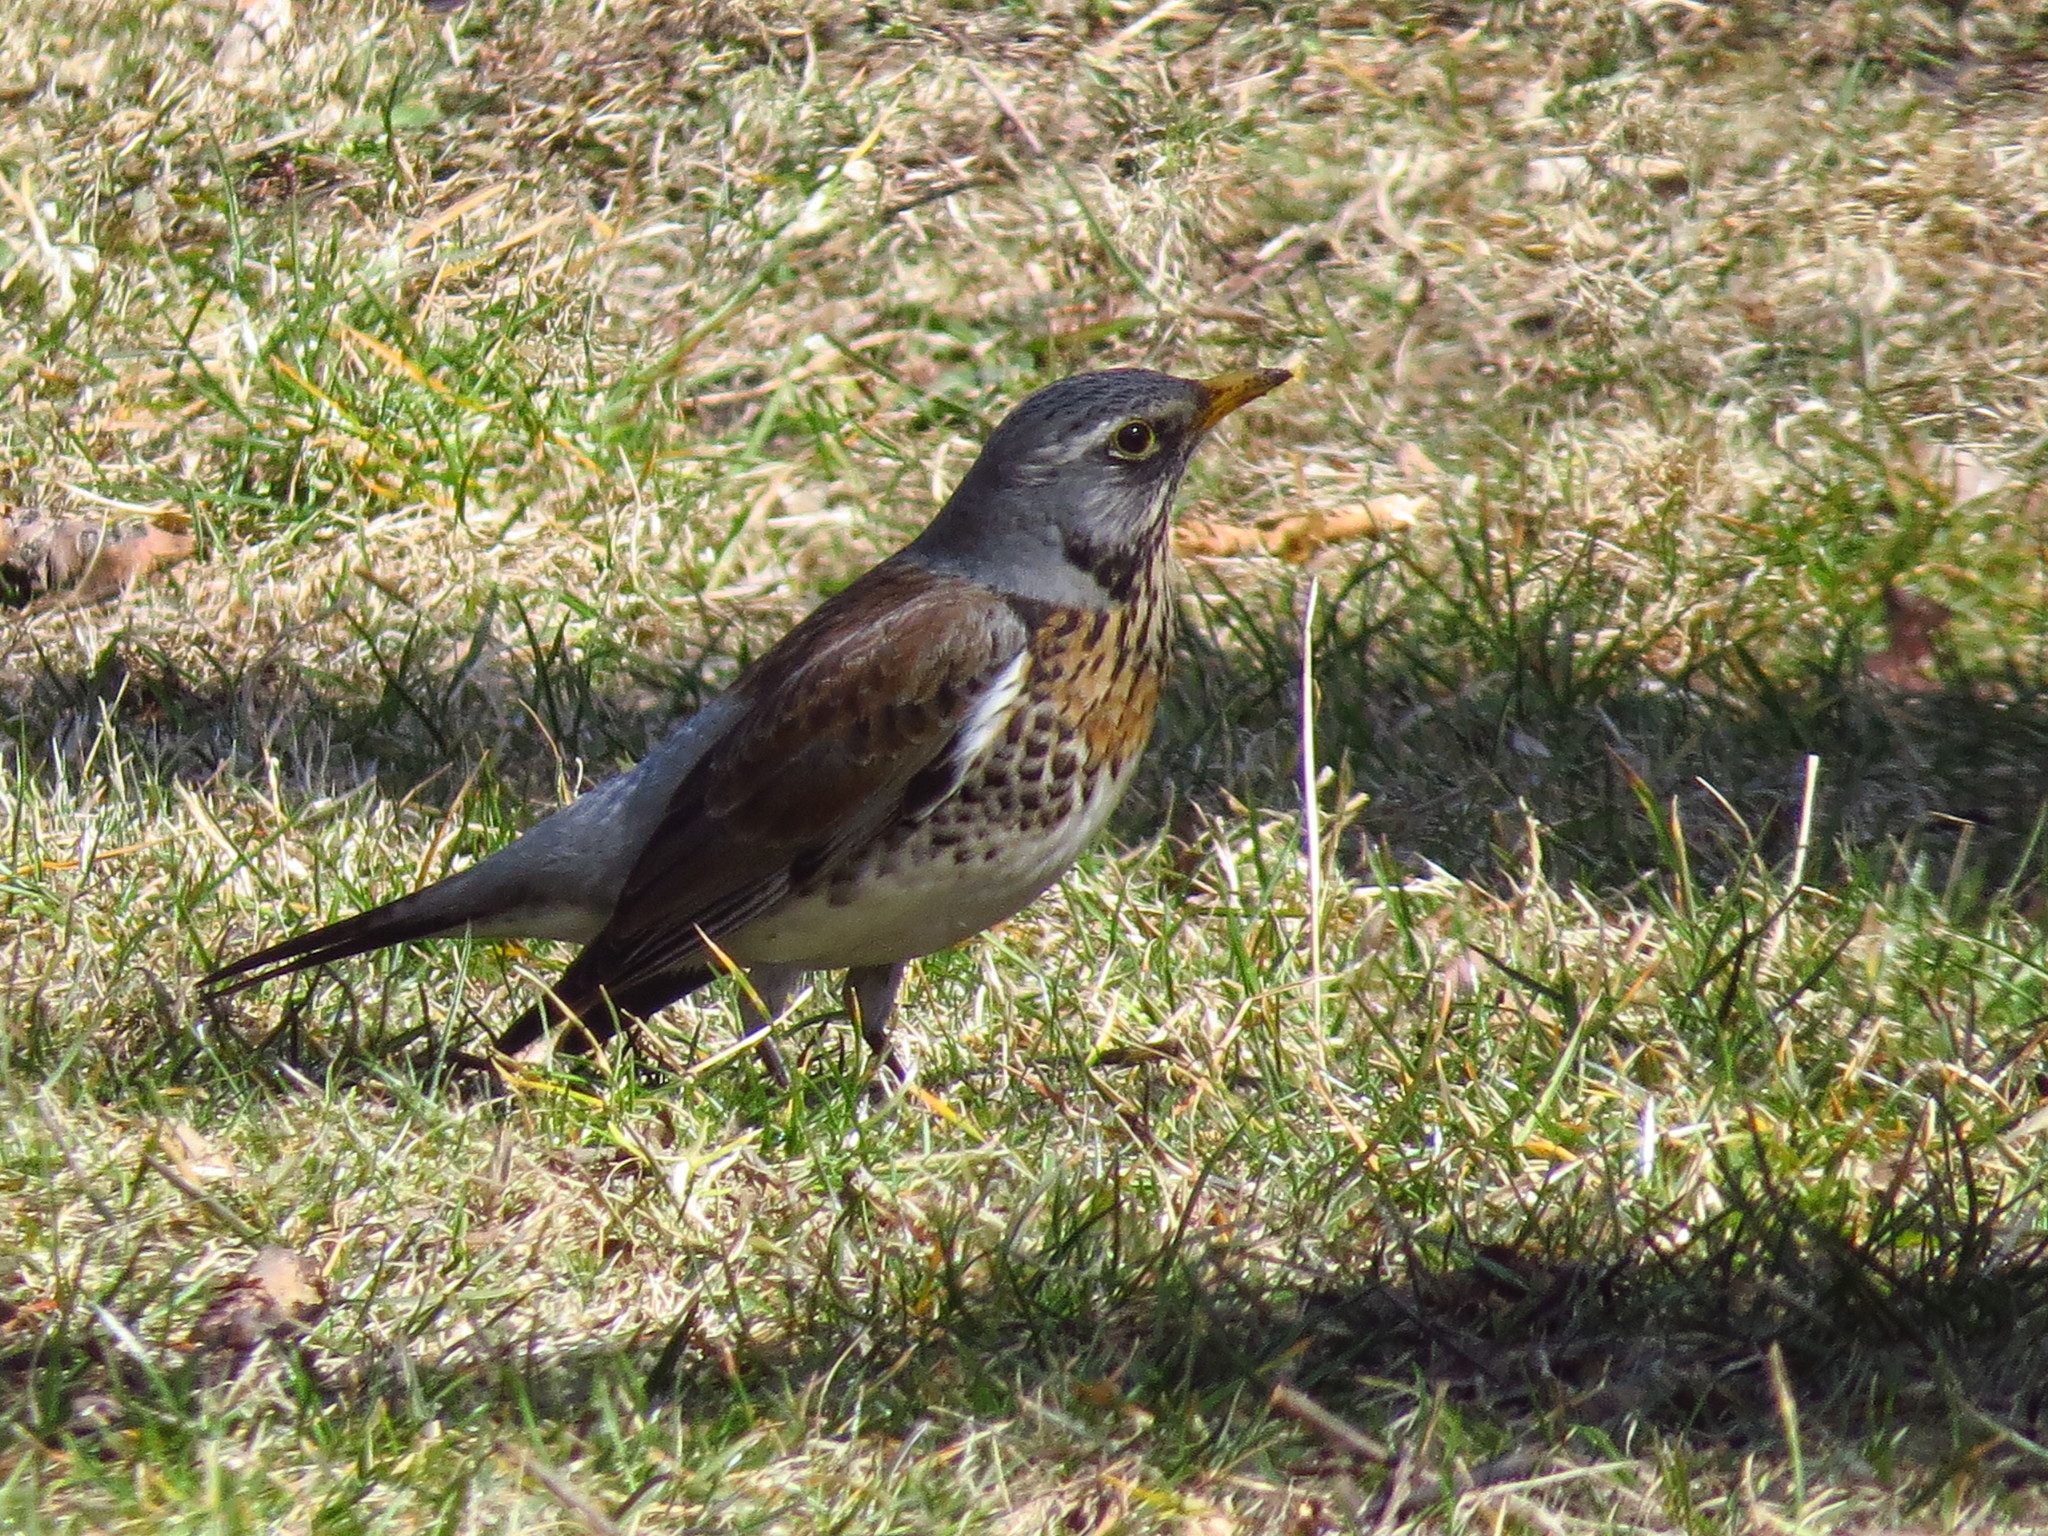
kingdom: Animalia
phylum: Chordata
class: Aves
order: Passeriformes
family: Turdidae
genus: Turdus
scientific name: Turdus pilaris
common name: Fieldfare
